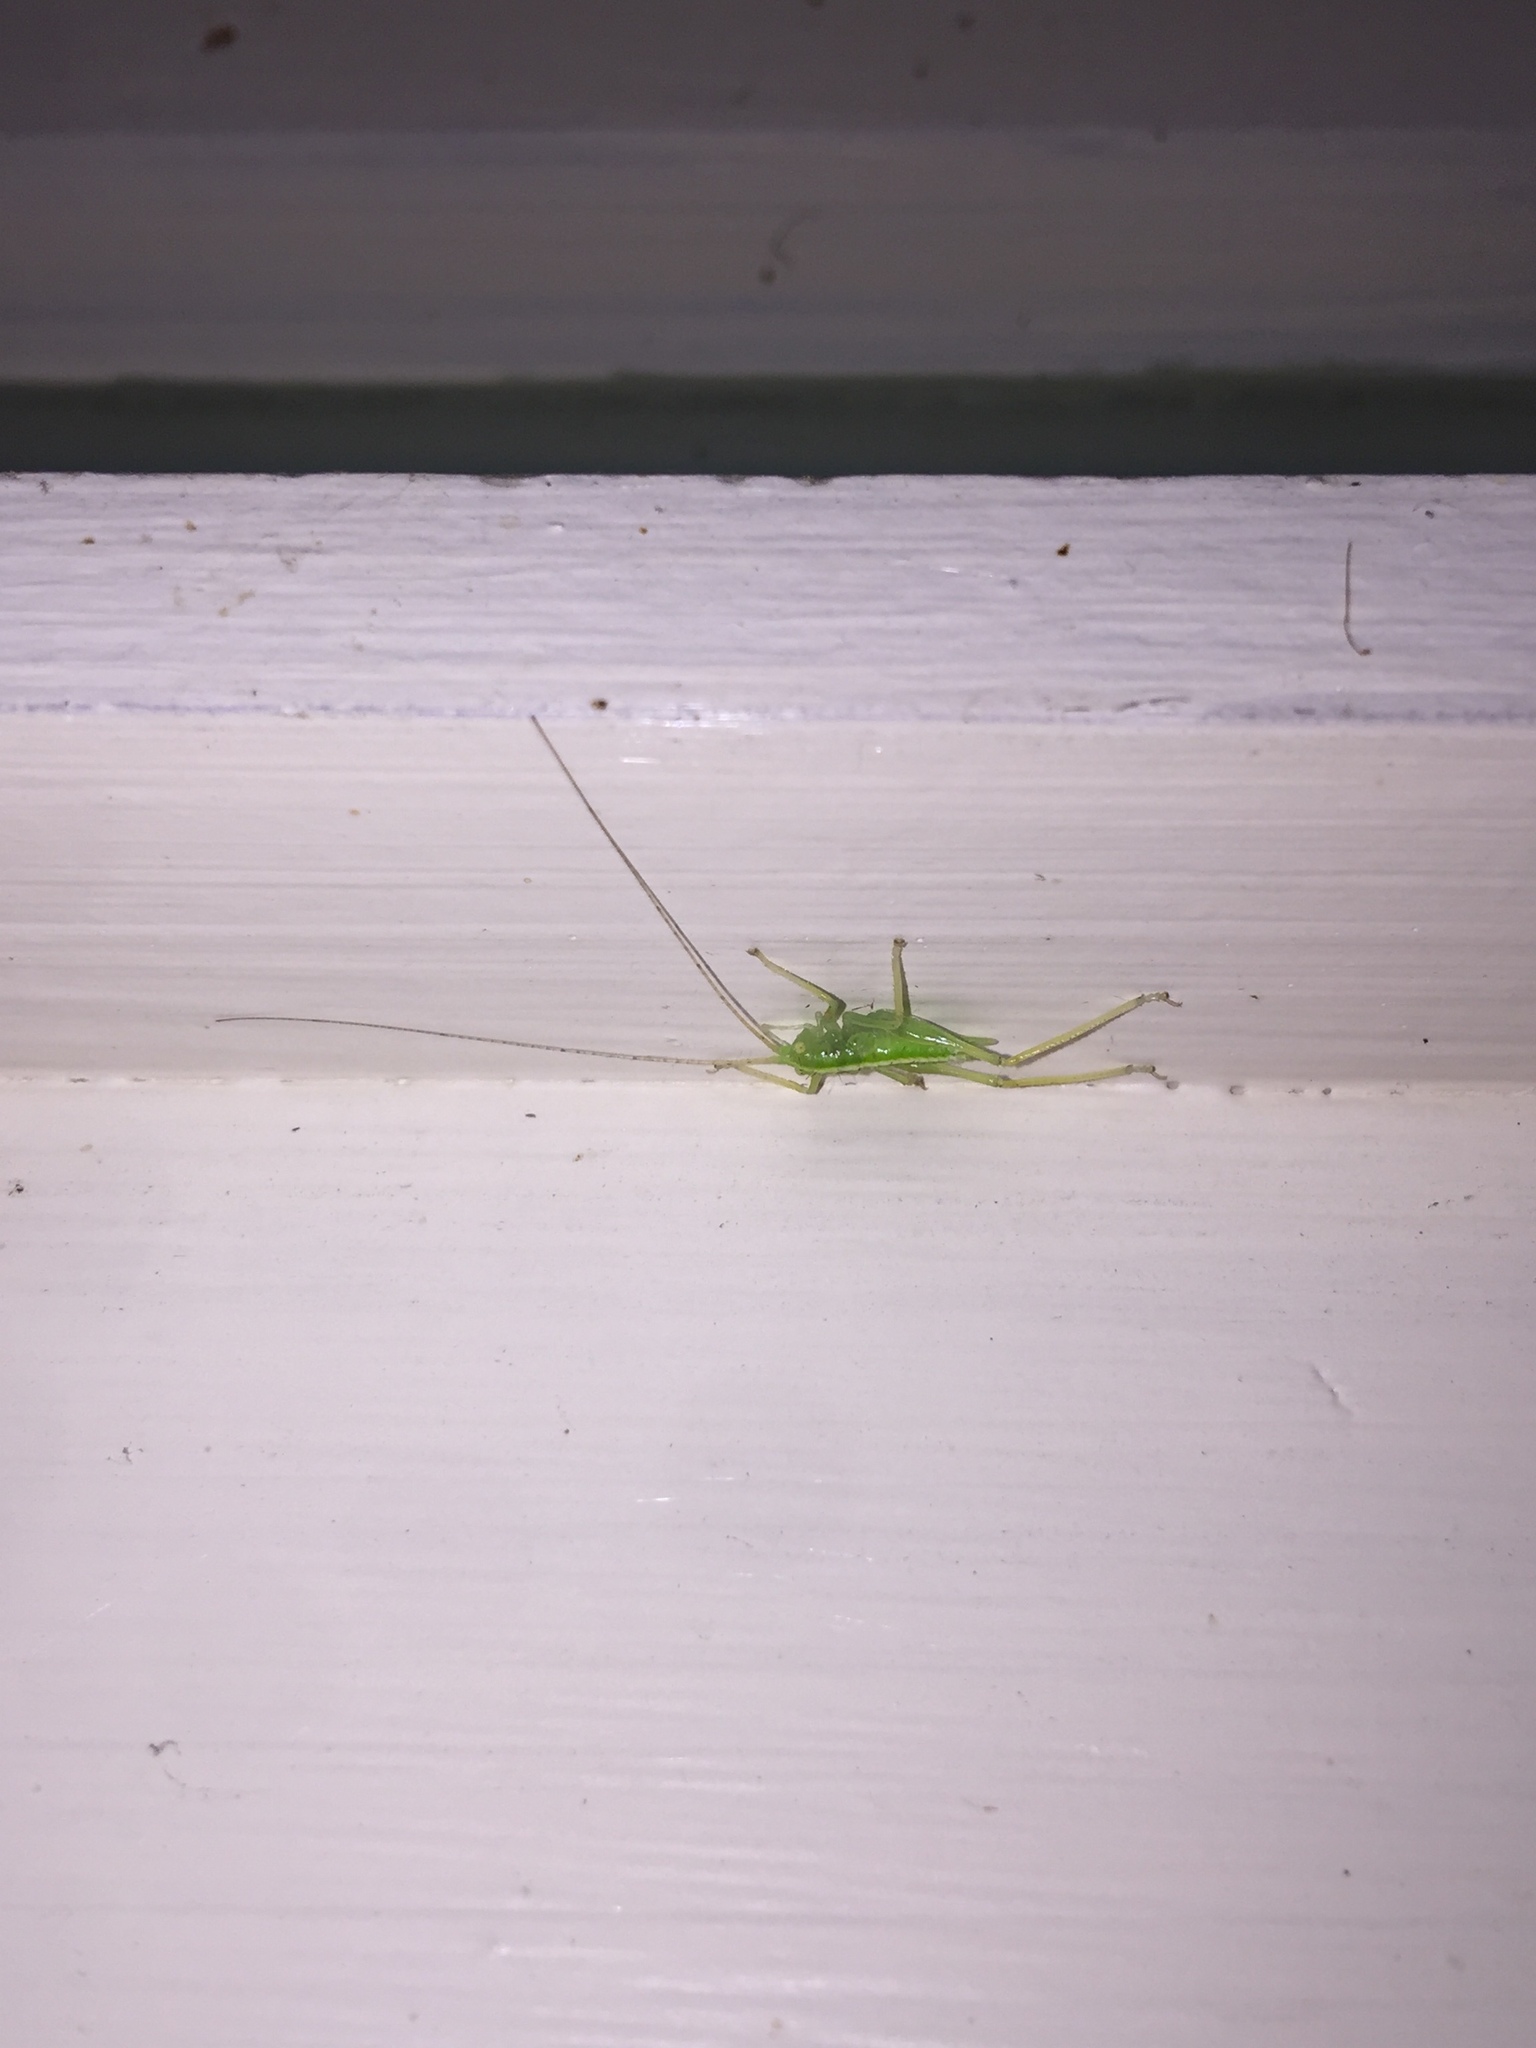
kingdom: Animalia
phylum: Arthropoda
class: Insecta
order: Orthoptera
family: Tettigoniidae
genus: Meconema
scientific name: Meconema thalassinum
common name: Oak bush-cricket
